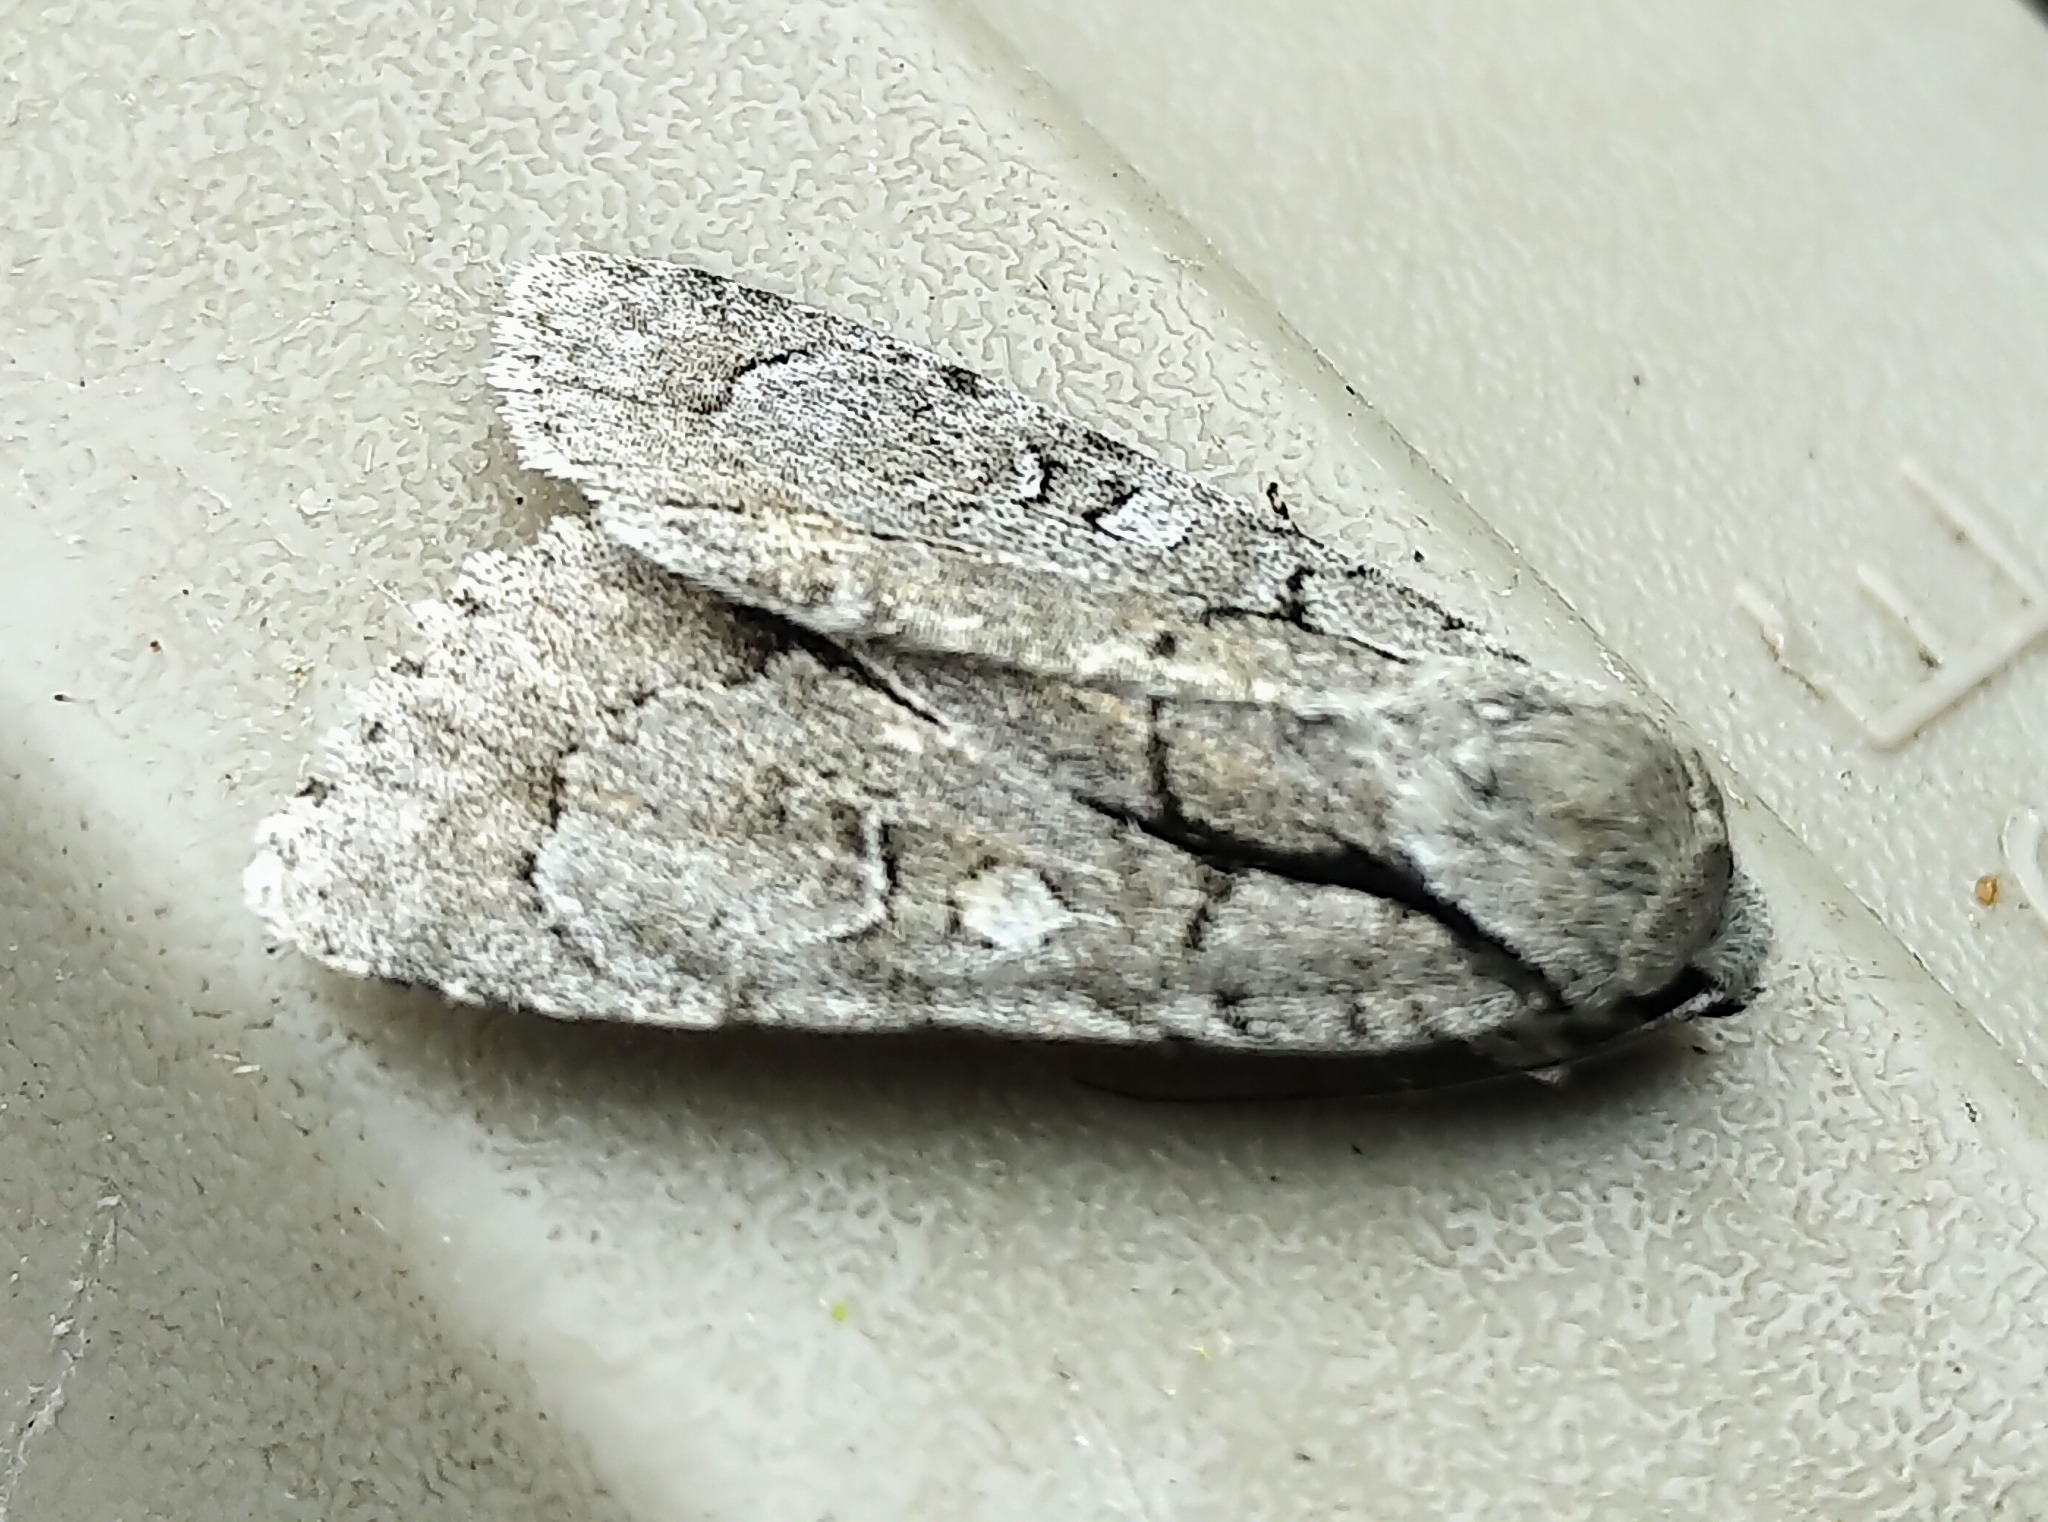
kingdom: Animalia
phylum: Arthropoda
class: Insecta
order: Lepidoptera
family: Noctuidae
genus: Acronicta
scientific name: Acronicta radcliffei
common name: Radcliffe's dagger
